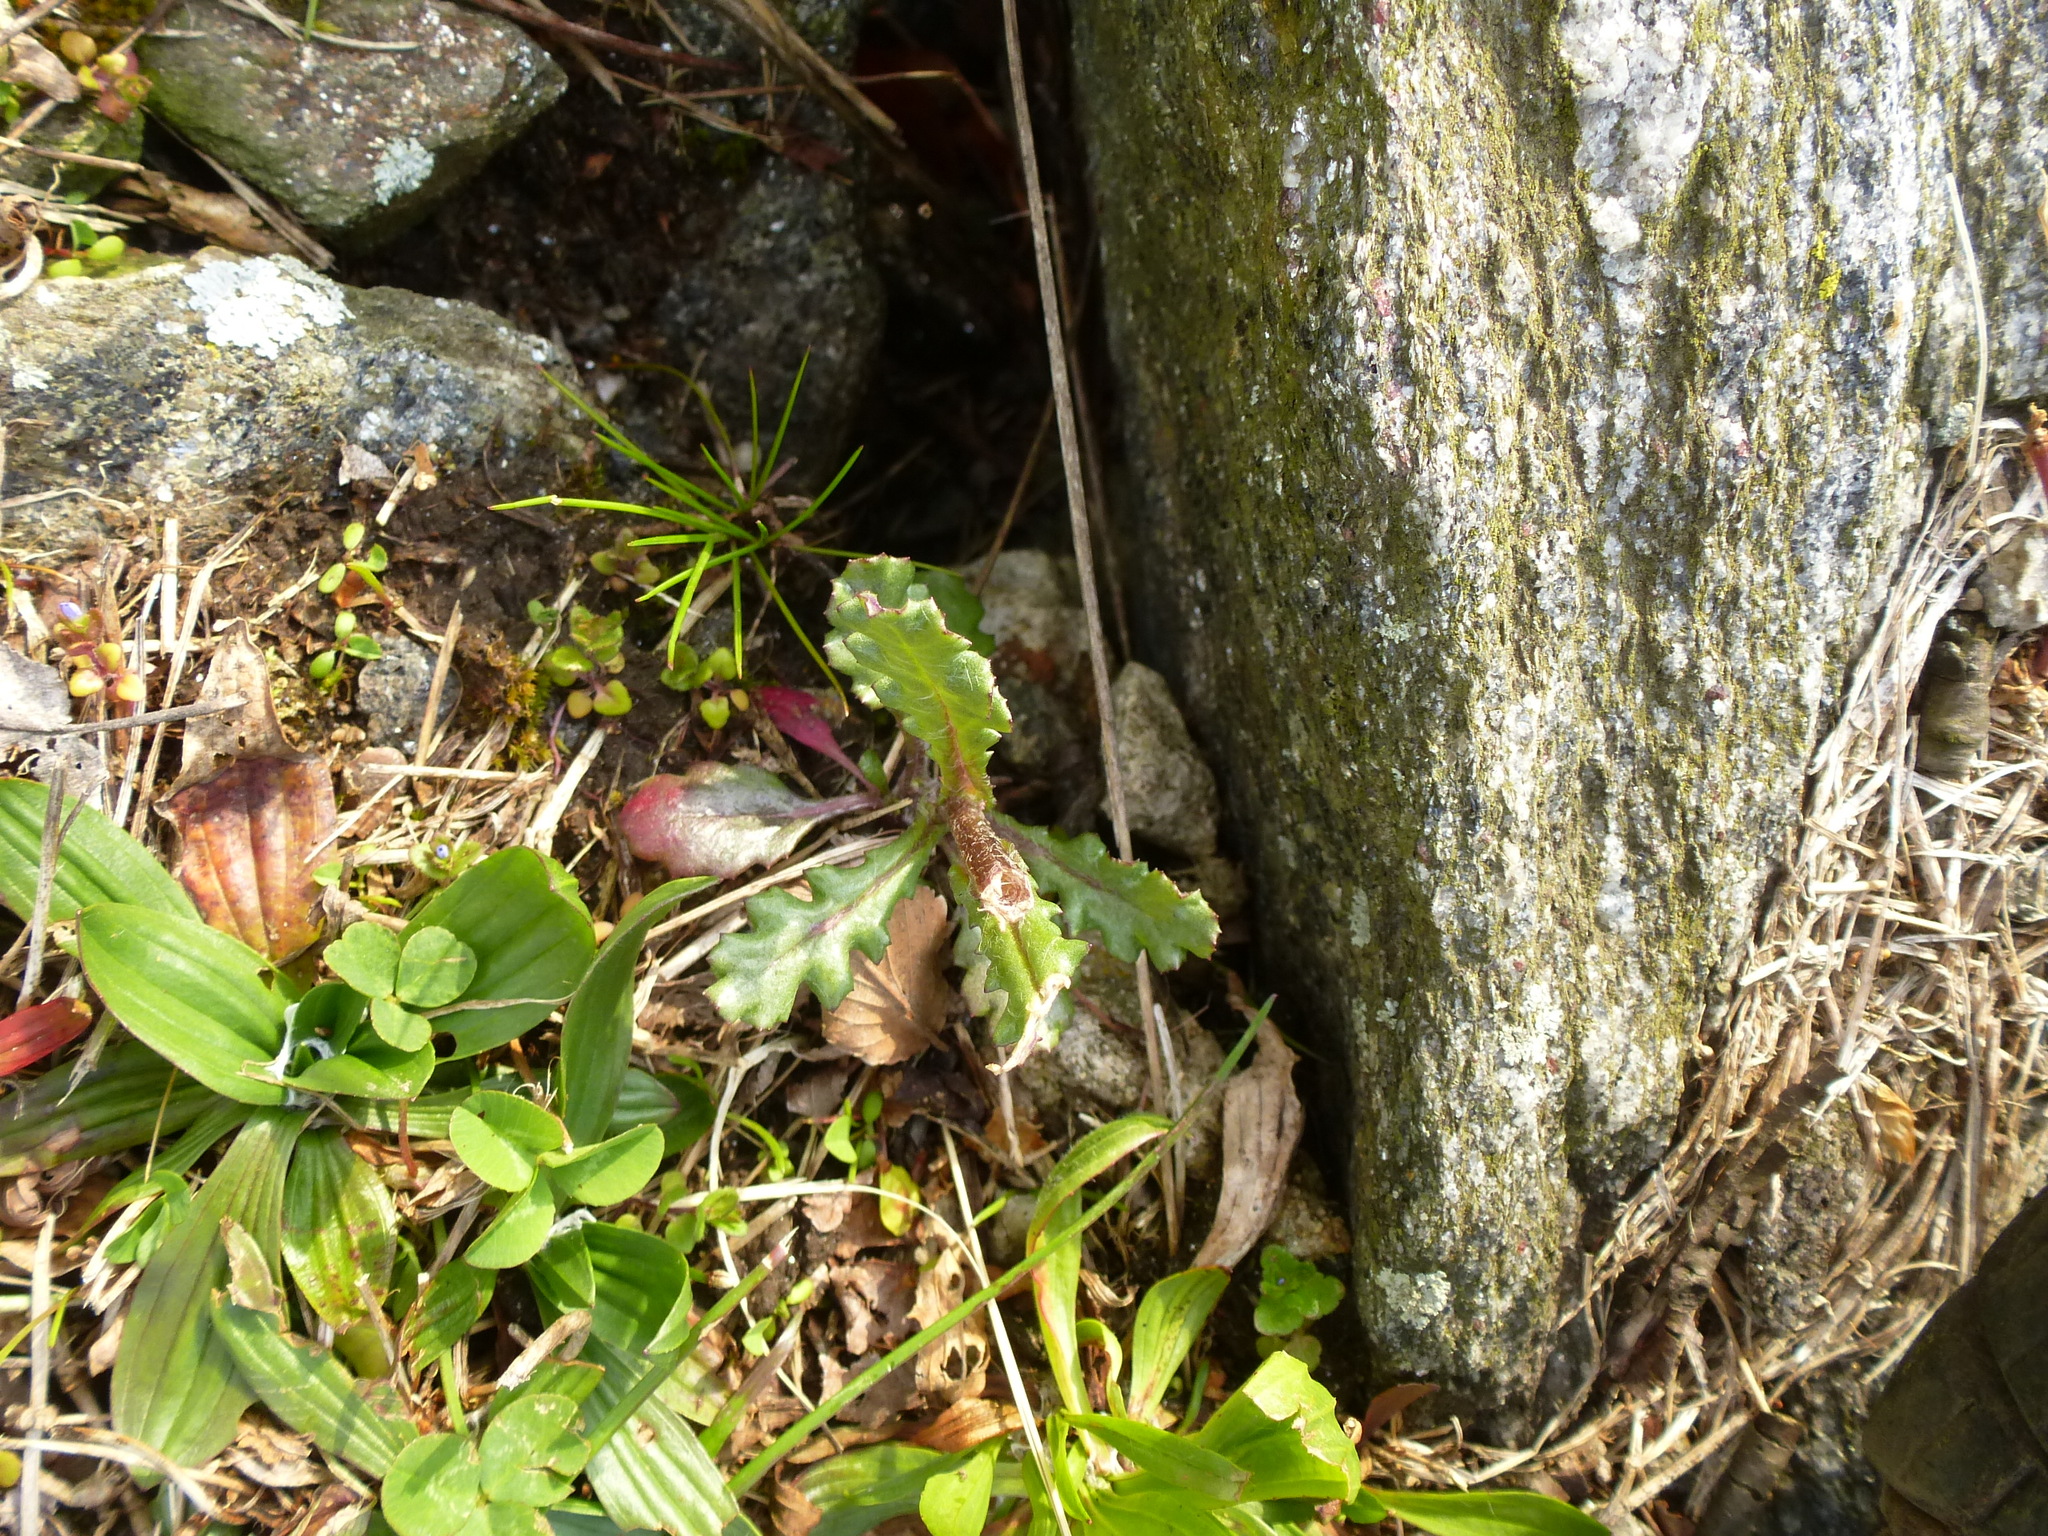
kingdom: Plantae
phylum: Tracheophyta
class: Magnoliopsida
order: Asterales
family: Asteraceae
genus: Senecio
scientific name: Senecio vulgaris
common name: Old-man-in-the-spring
